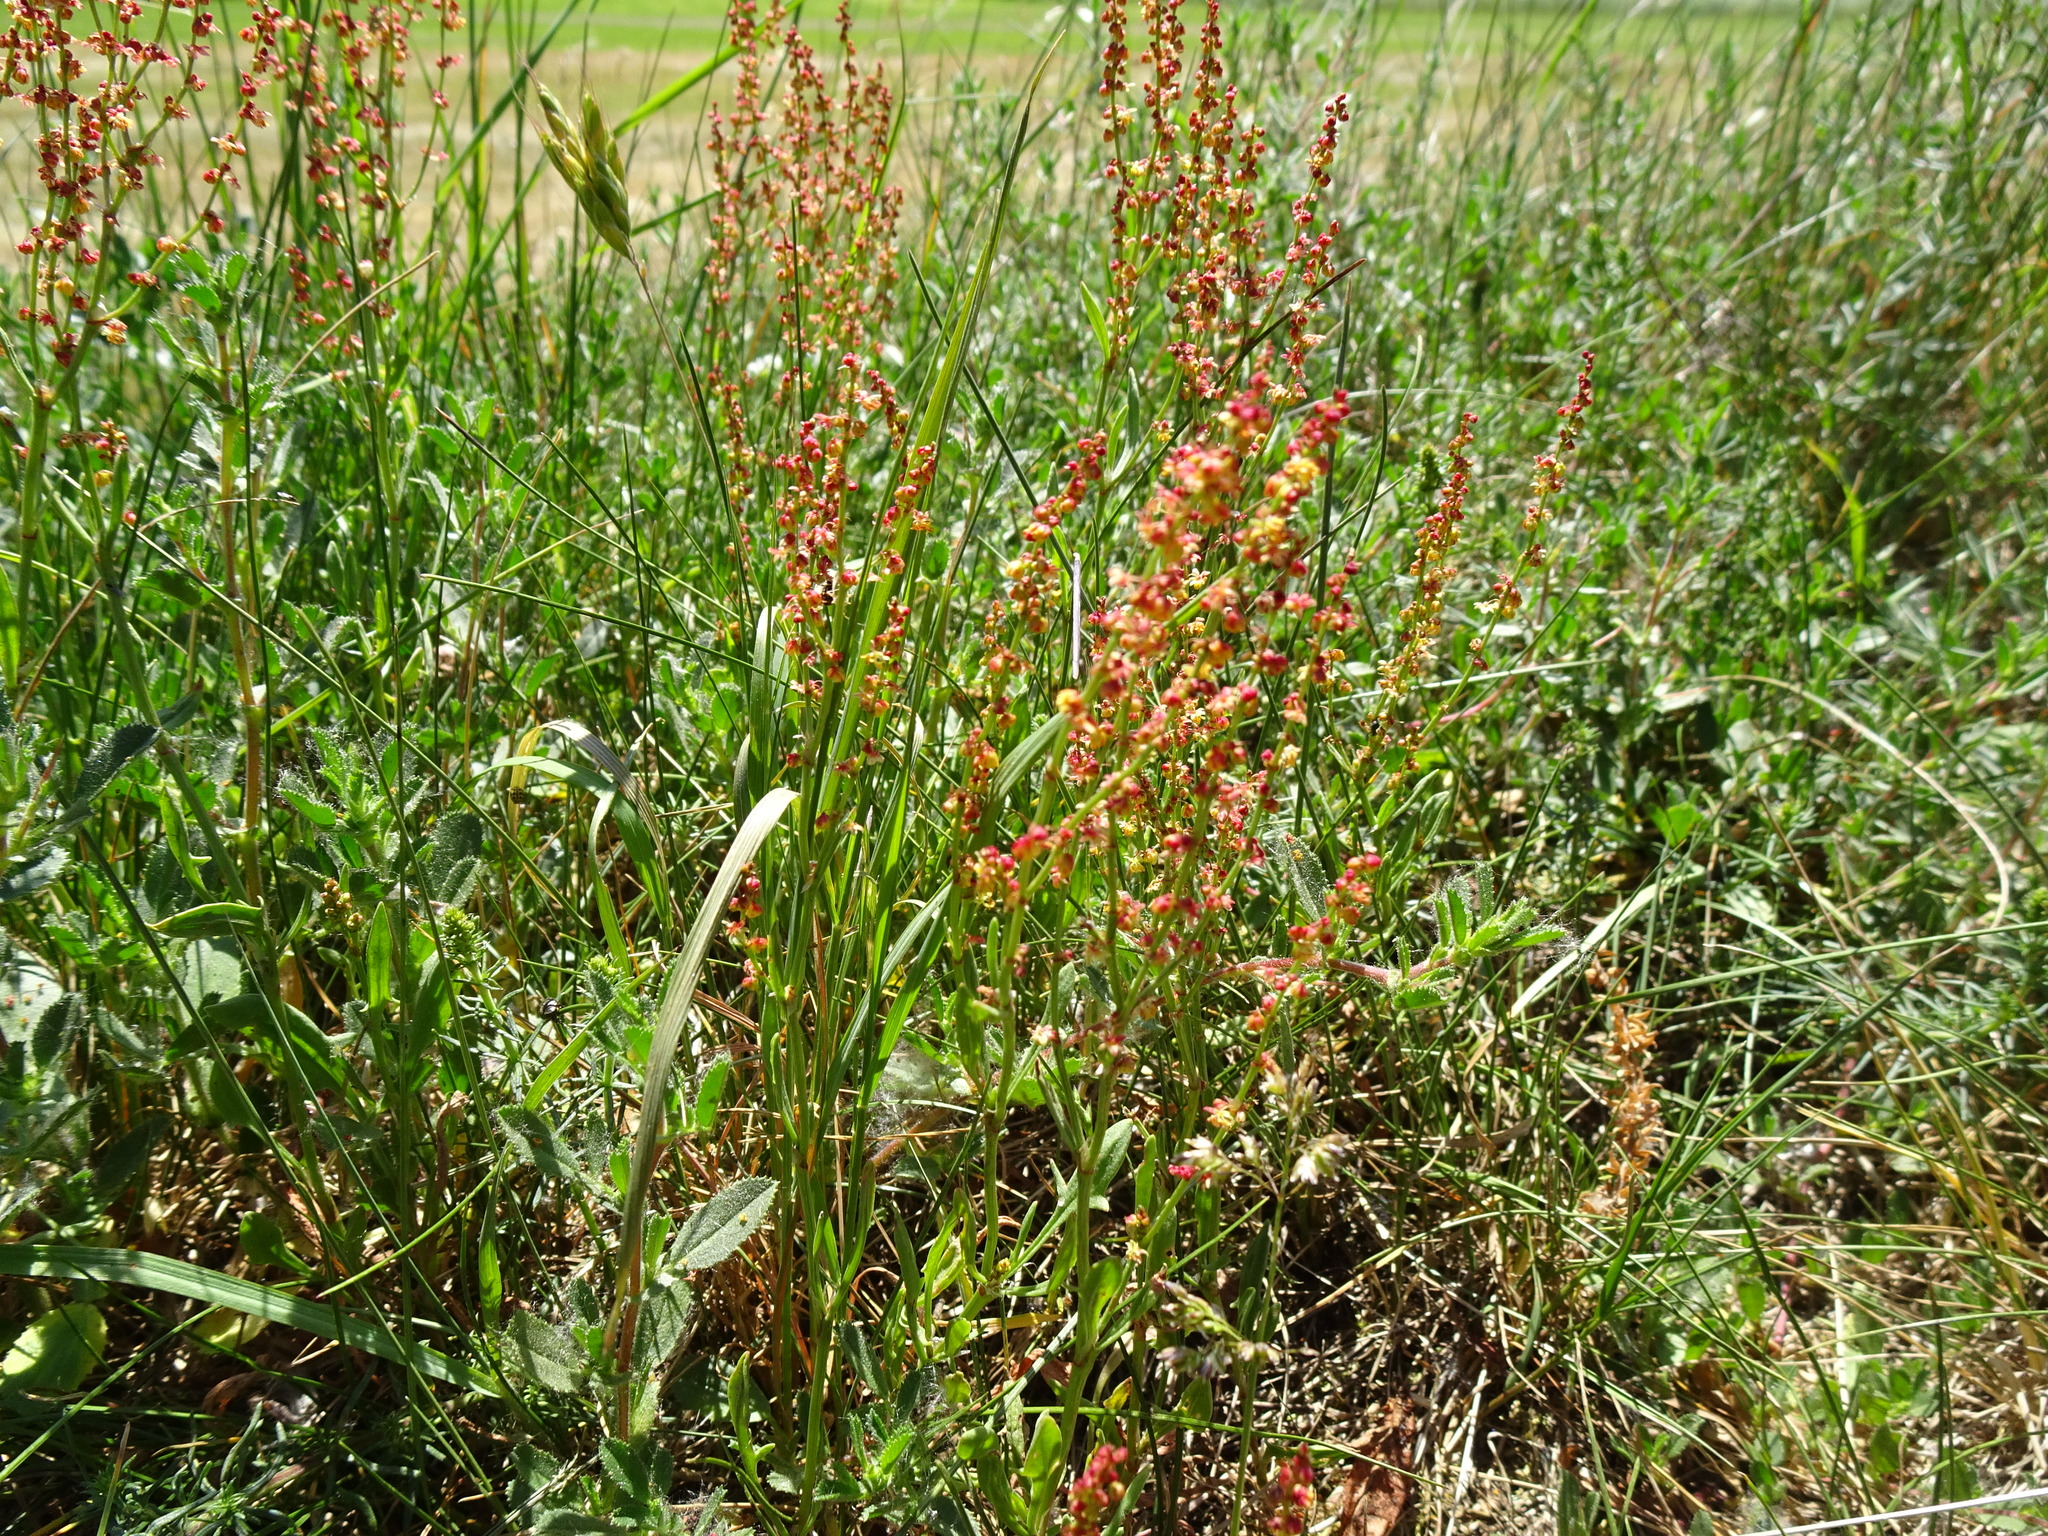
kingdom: Plantae
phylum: Tracheophyta
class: Magnoliopsida
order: Caryophyllales
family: Polygonaceae
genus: Rumex
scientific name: Rumex acetosella
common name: Common sheep sorrel
